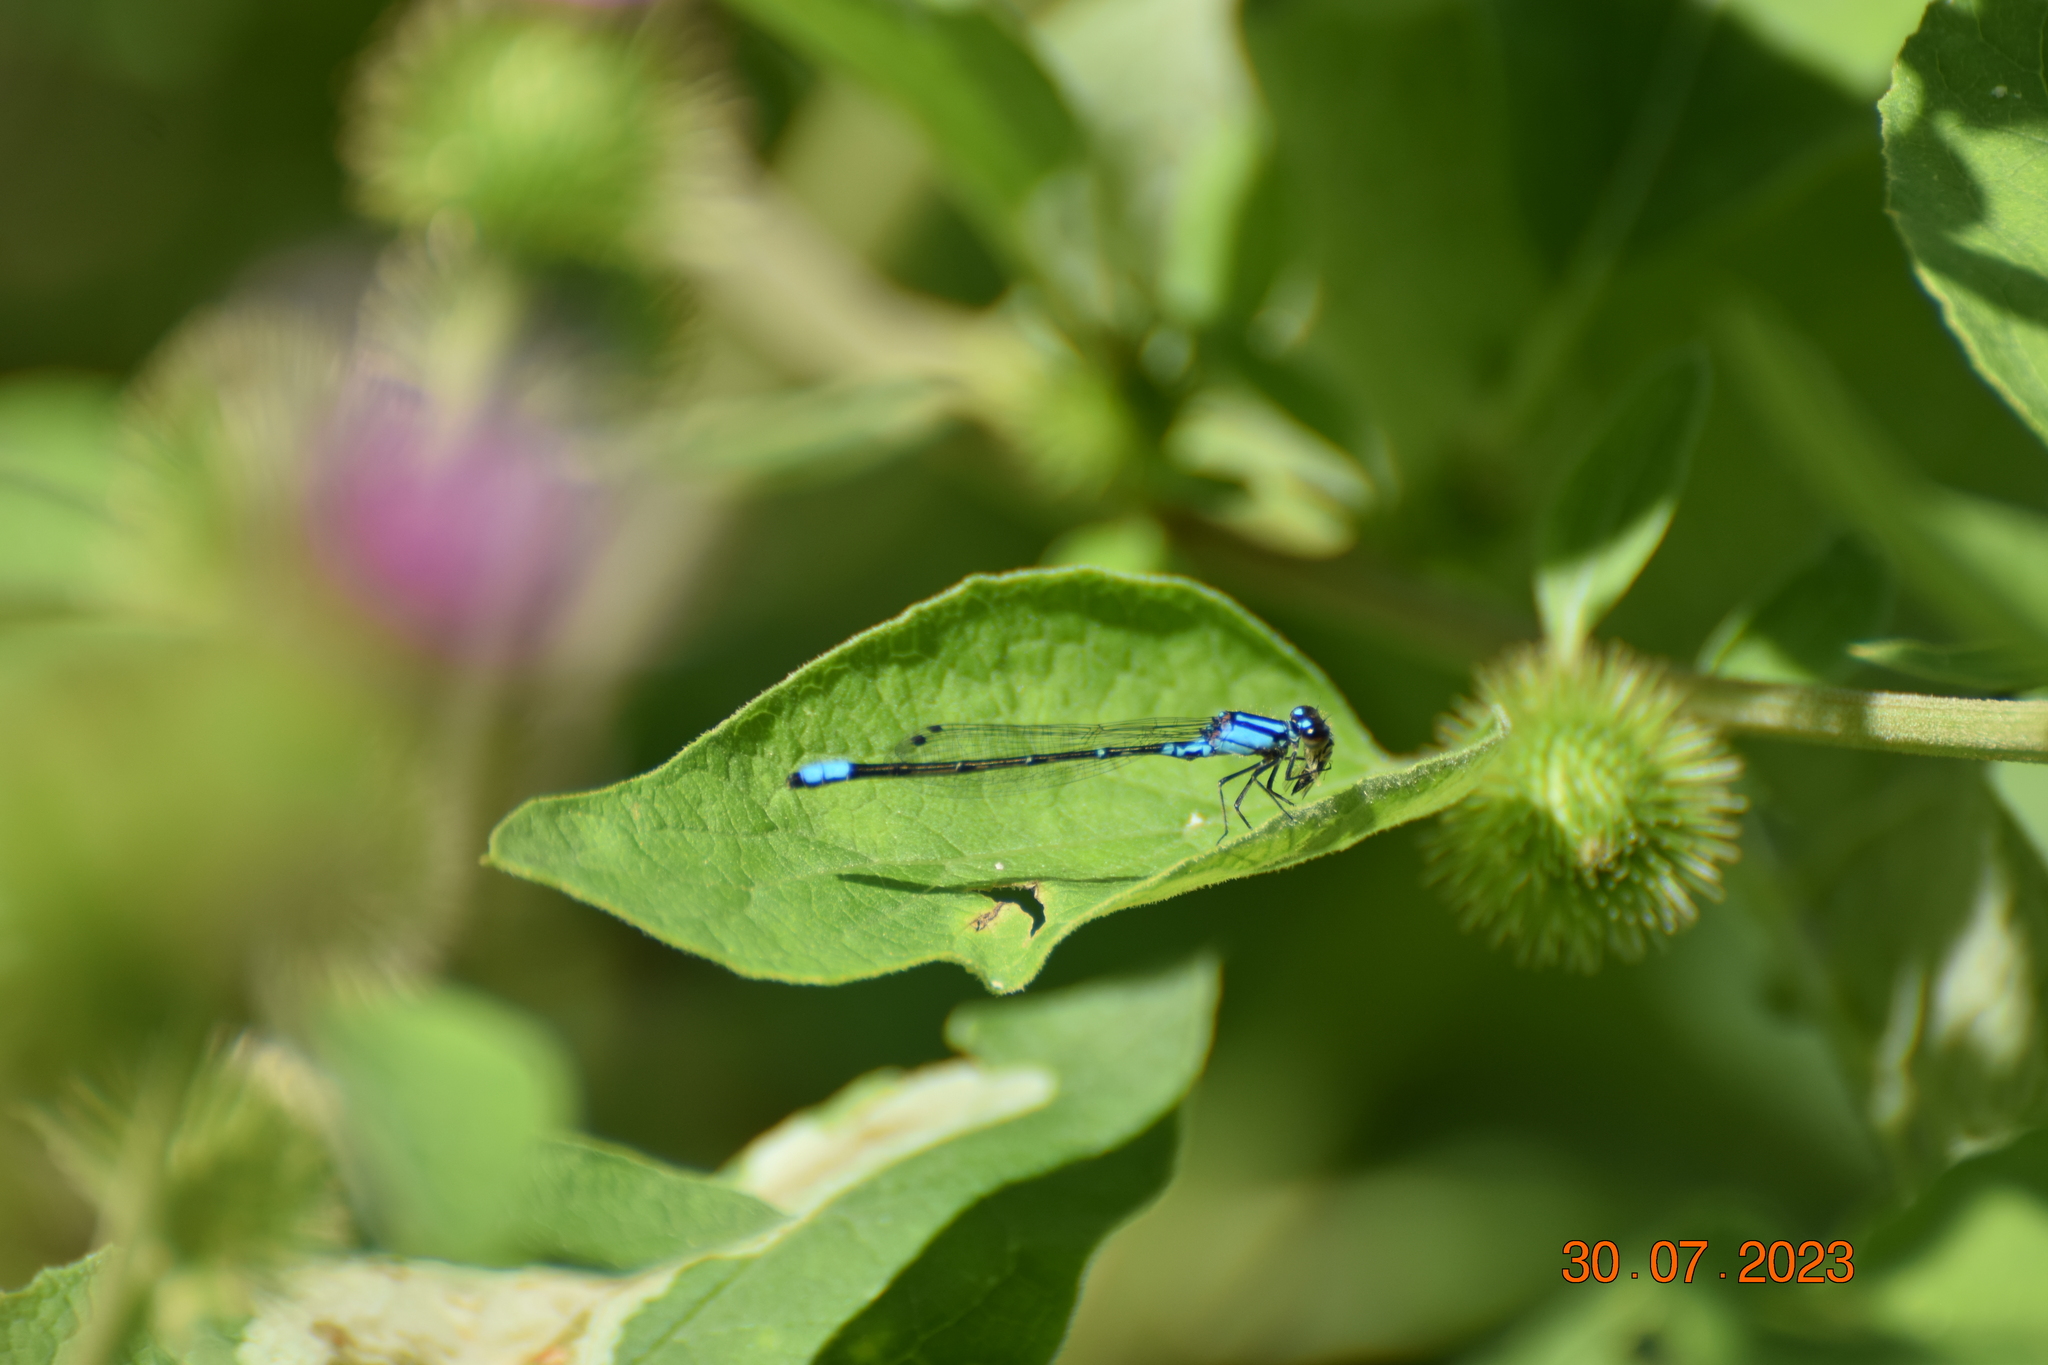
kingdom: Animalia
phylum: Arthropoda
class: Insecta
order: Odonata
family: Coenagrionidae
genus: Enallagma
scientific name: Enallagma geminatum
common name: Skimming bluet
